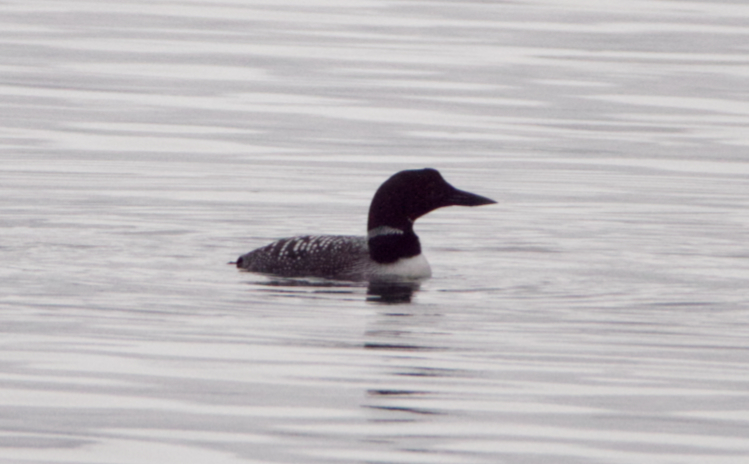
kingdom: Animalia
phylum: Chordata
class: Aves
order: Gaviiformes
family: Gaviidae
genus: Gavia
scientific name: Gavia immer
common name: Common loon
